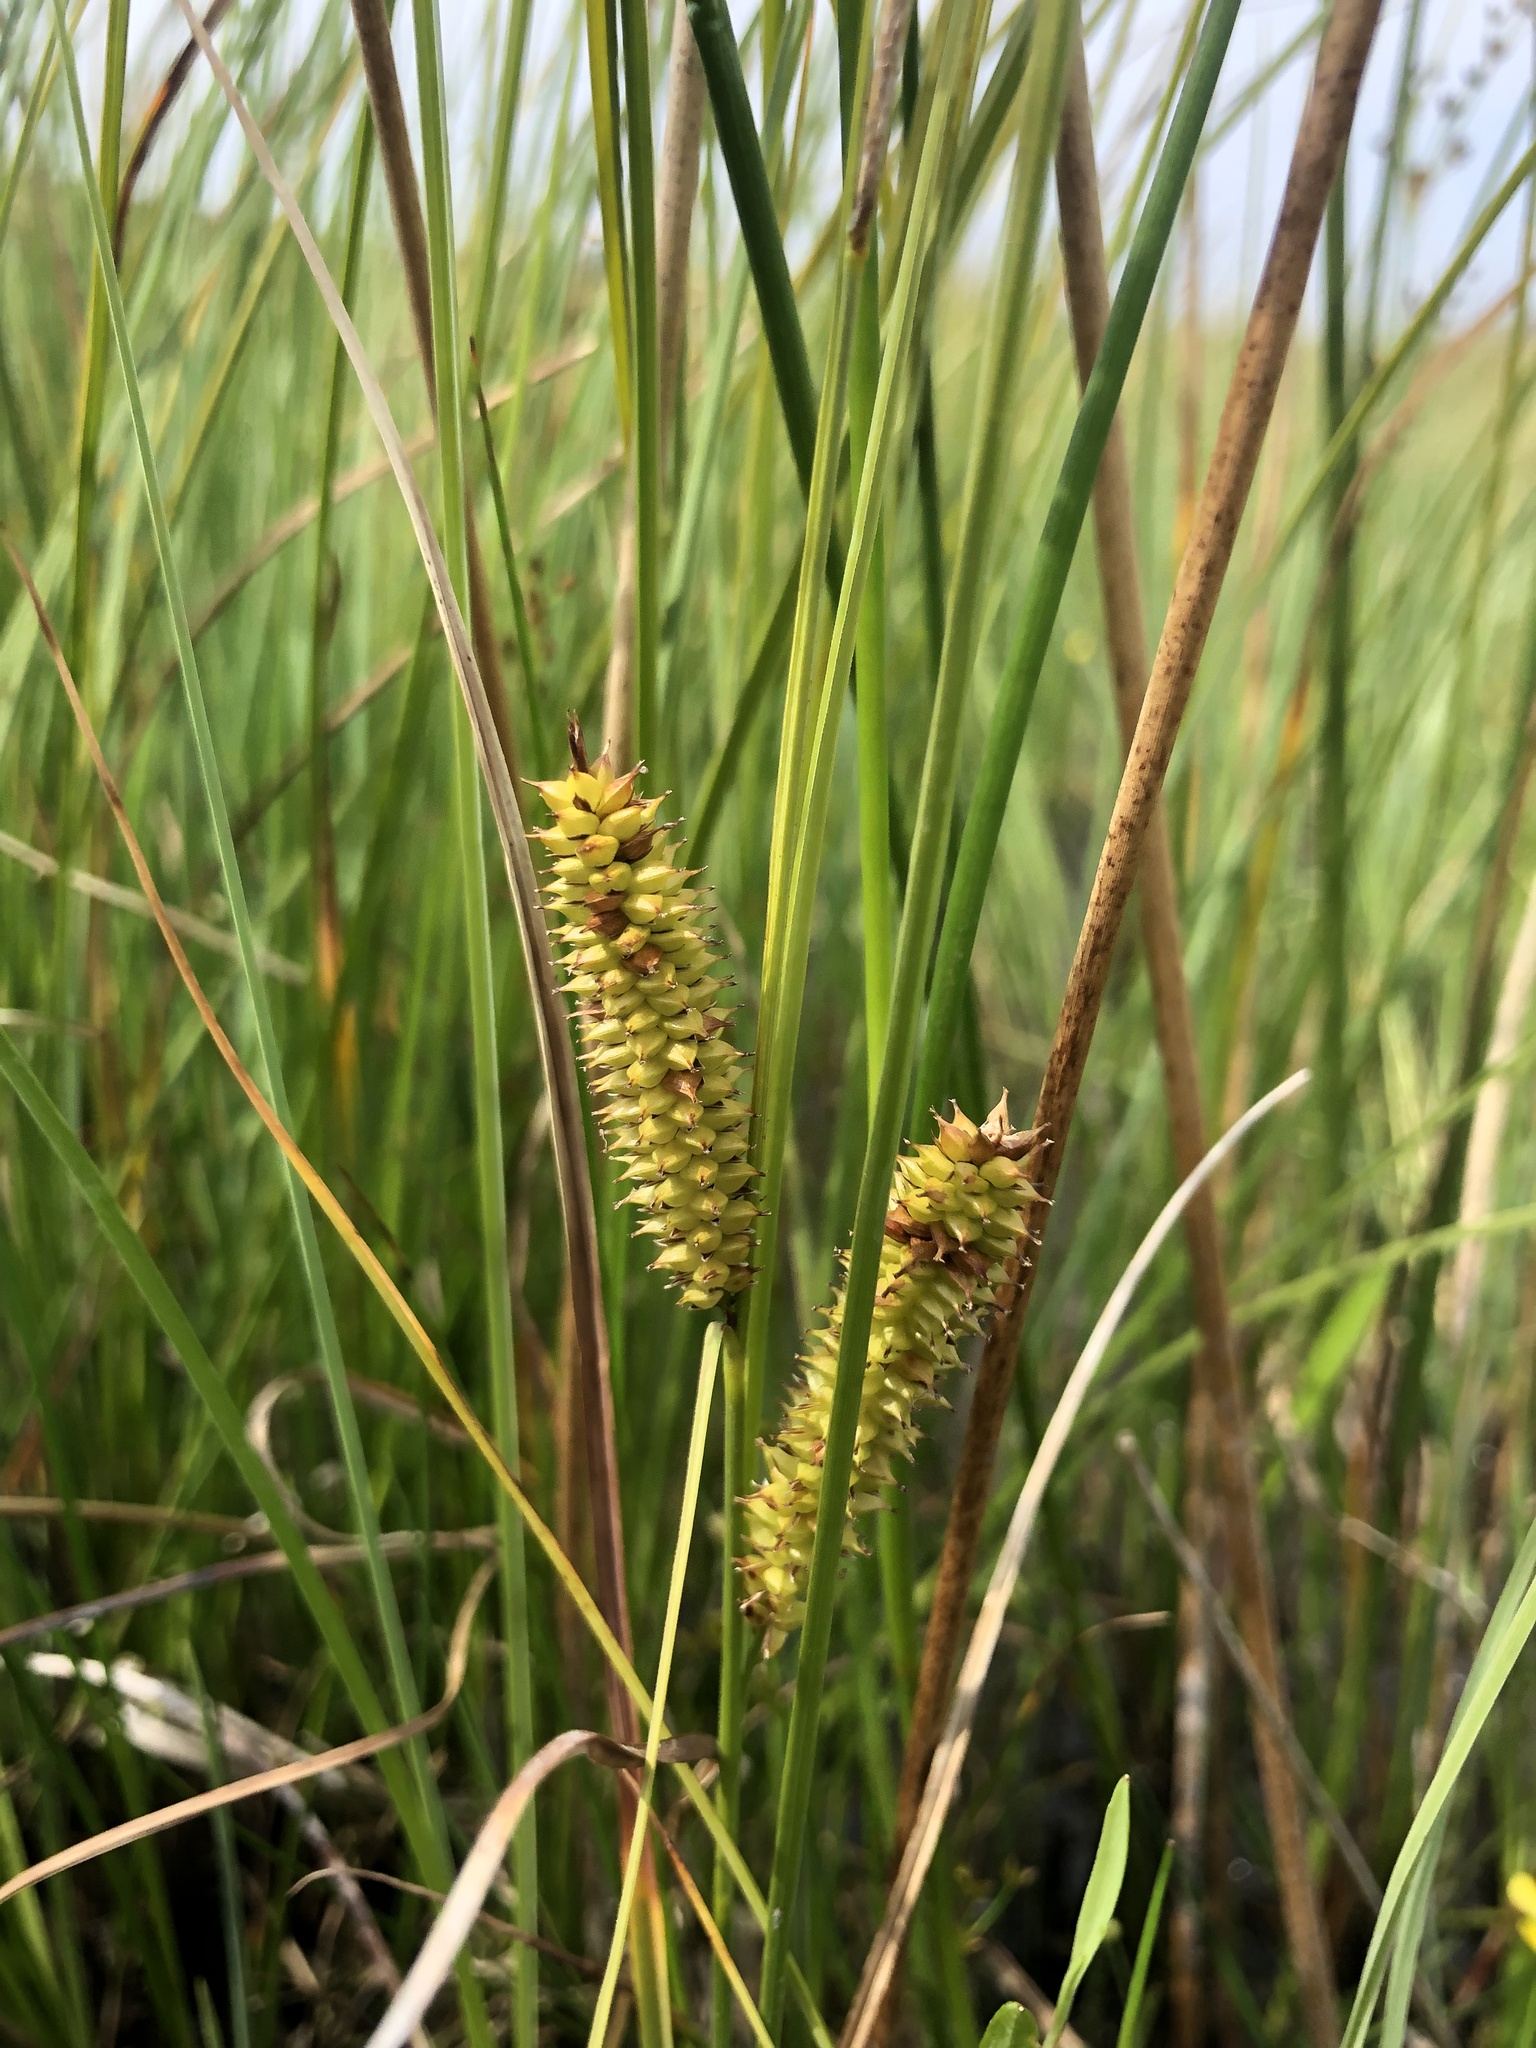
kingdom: Plantae
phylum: Tracheophyta
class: Liliopsida
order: Poales
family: Cyperaceae
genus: Carex
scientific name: Carex rostrata
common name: Bottle sedge
